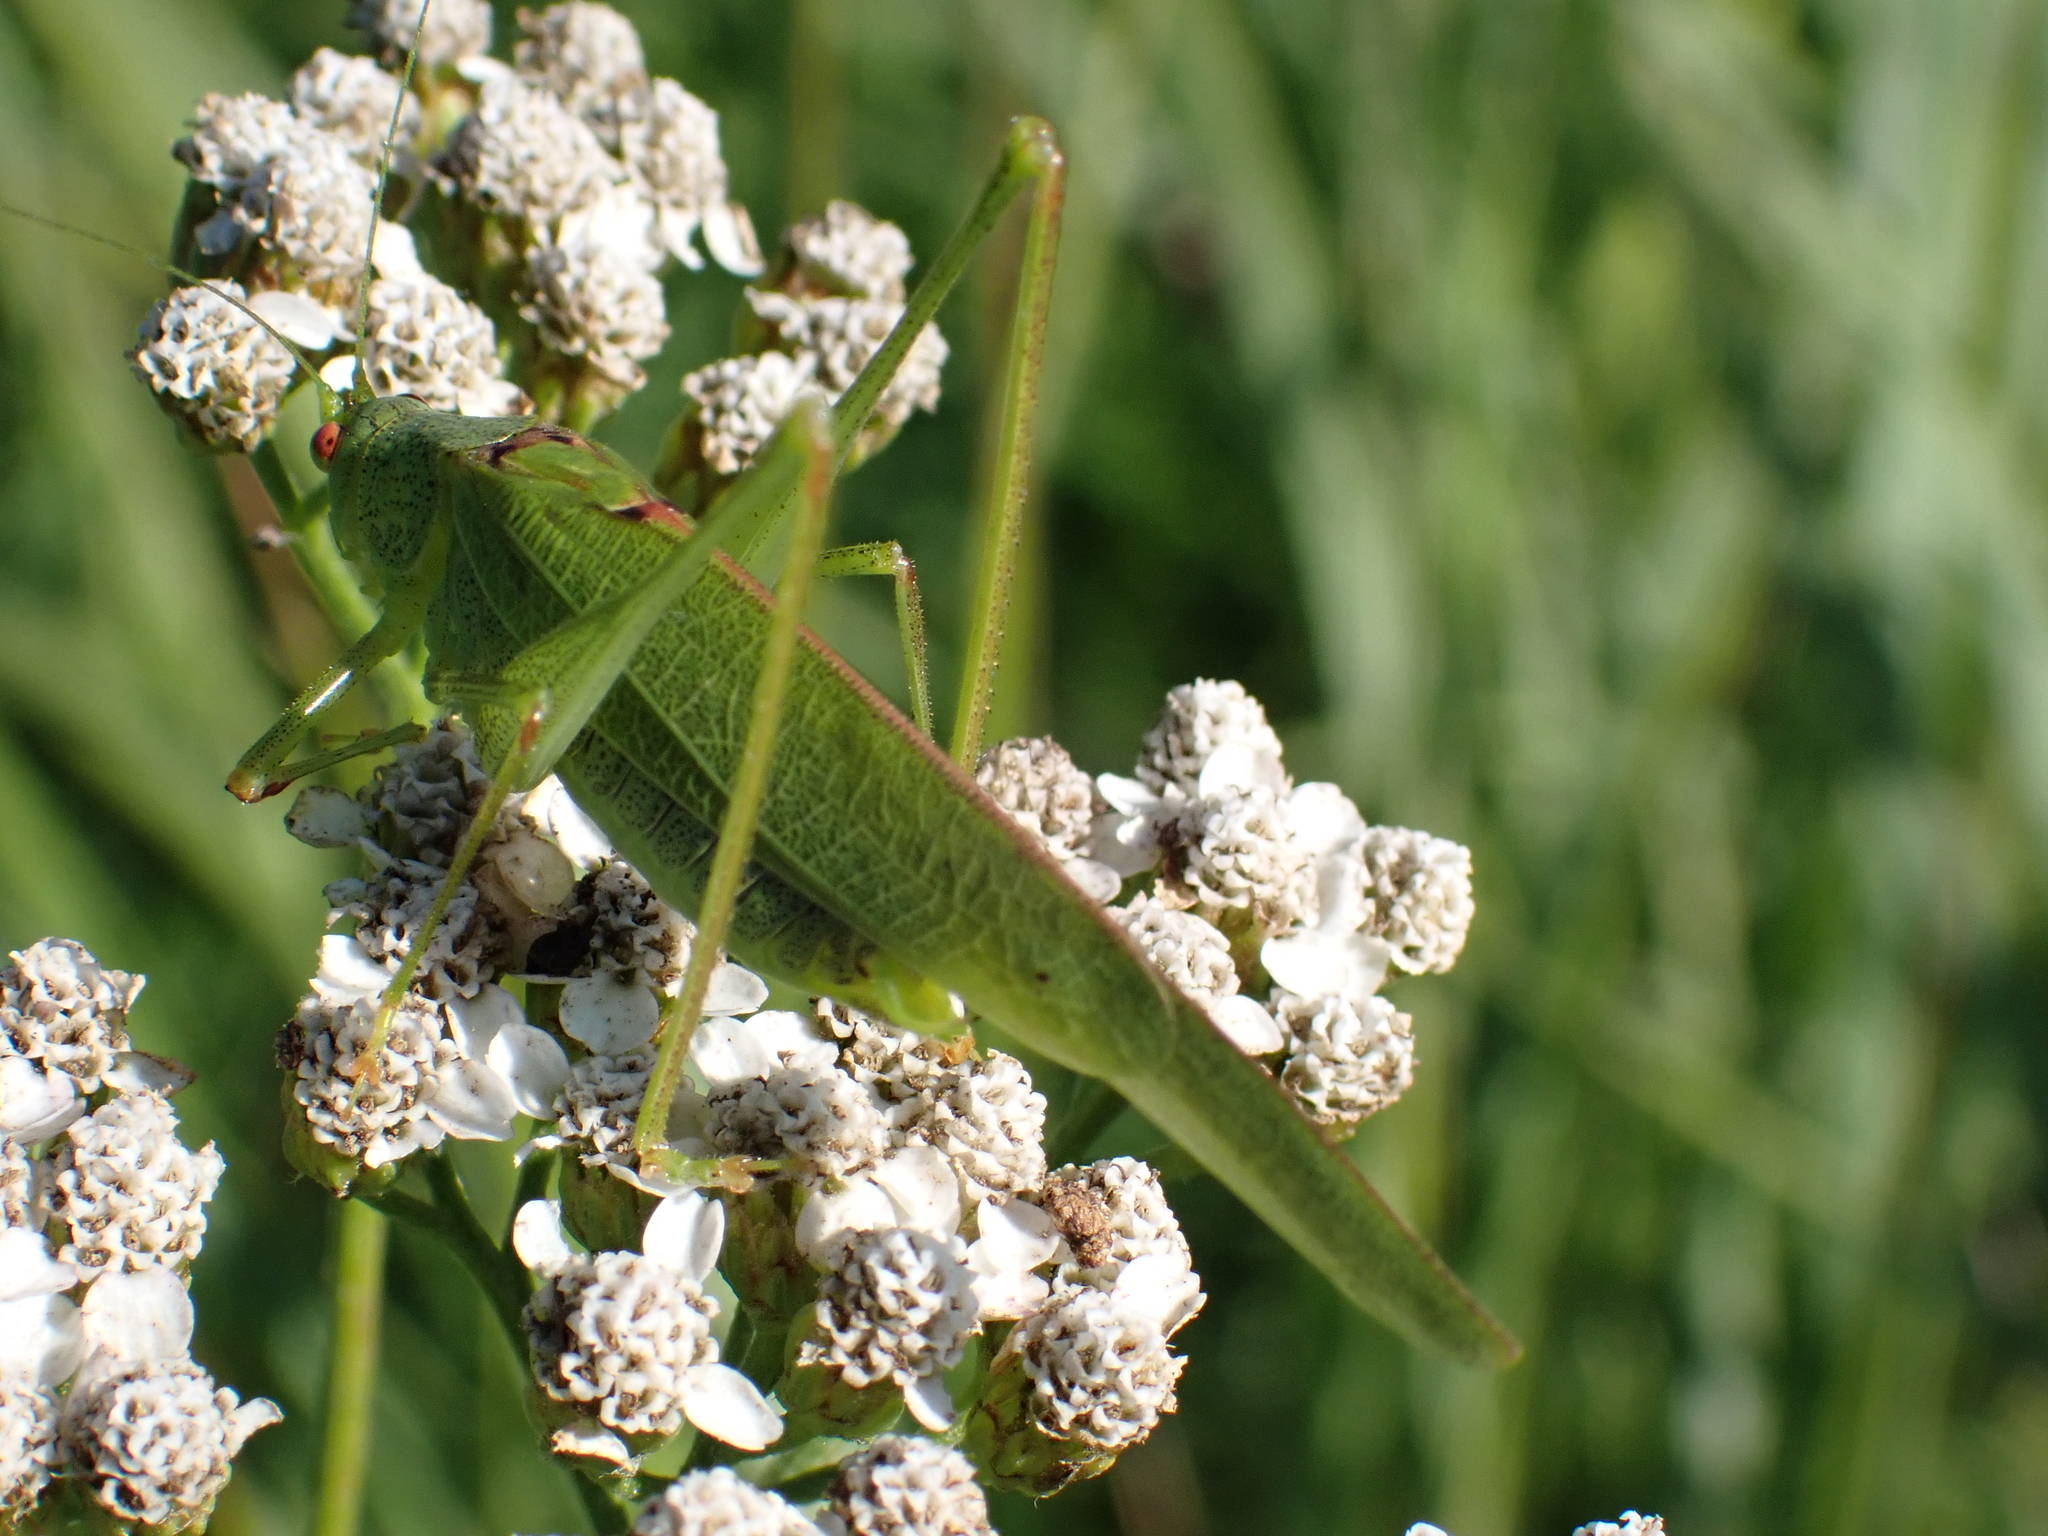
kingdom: Animalia
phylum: Arthropoda
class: Insecta
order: Orthoptera
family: Tettigoniidae
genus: Phaneroptera
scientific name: Phaneroptera nana
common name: Southern sickle bush-cricket
